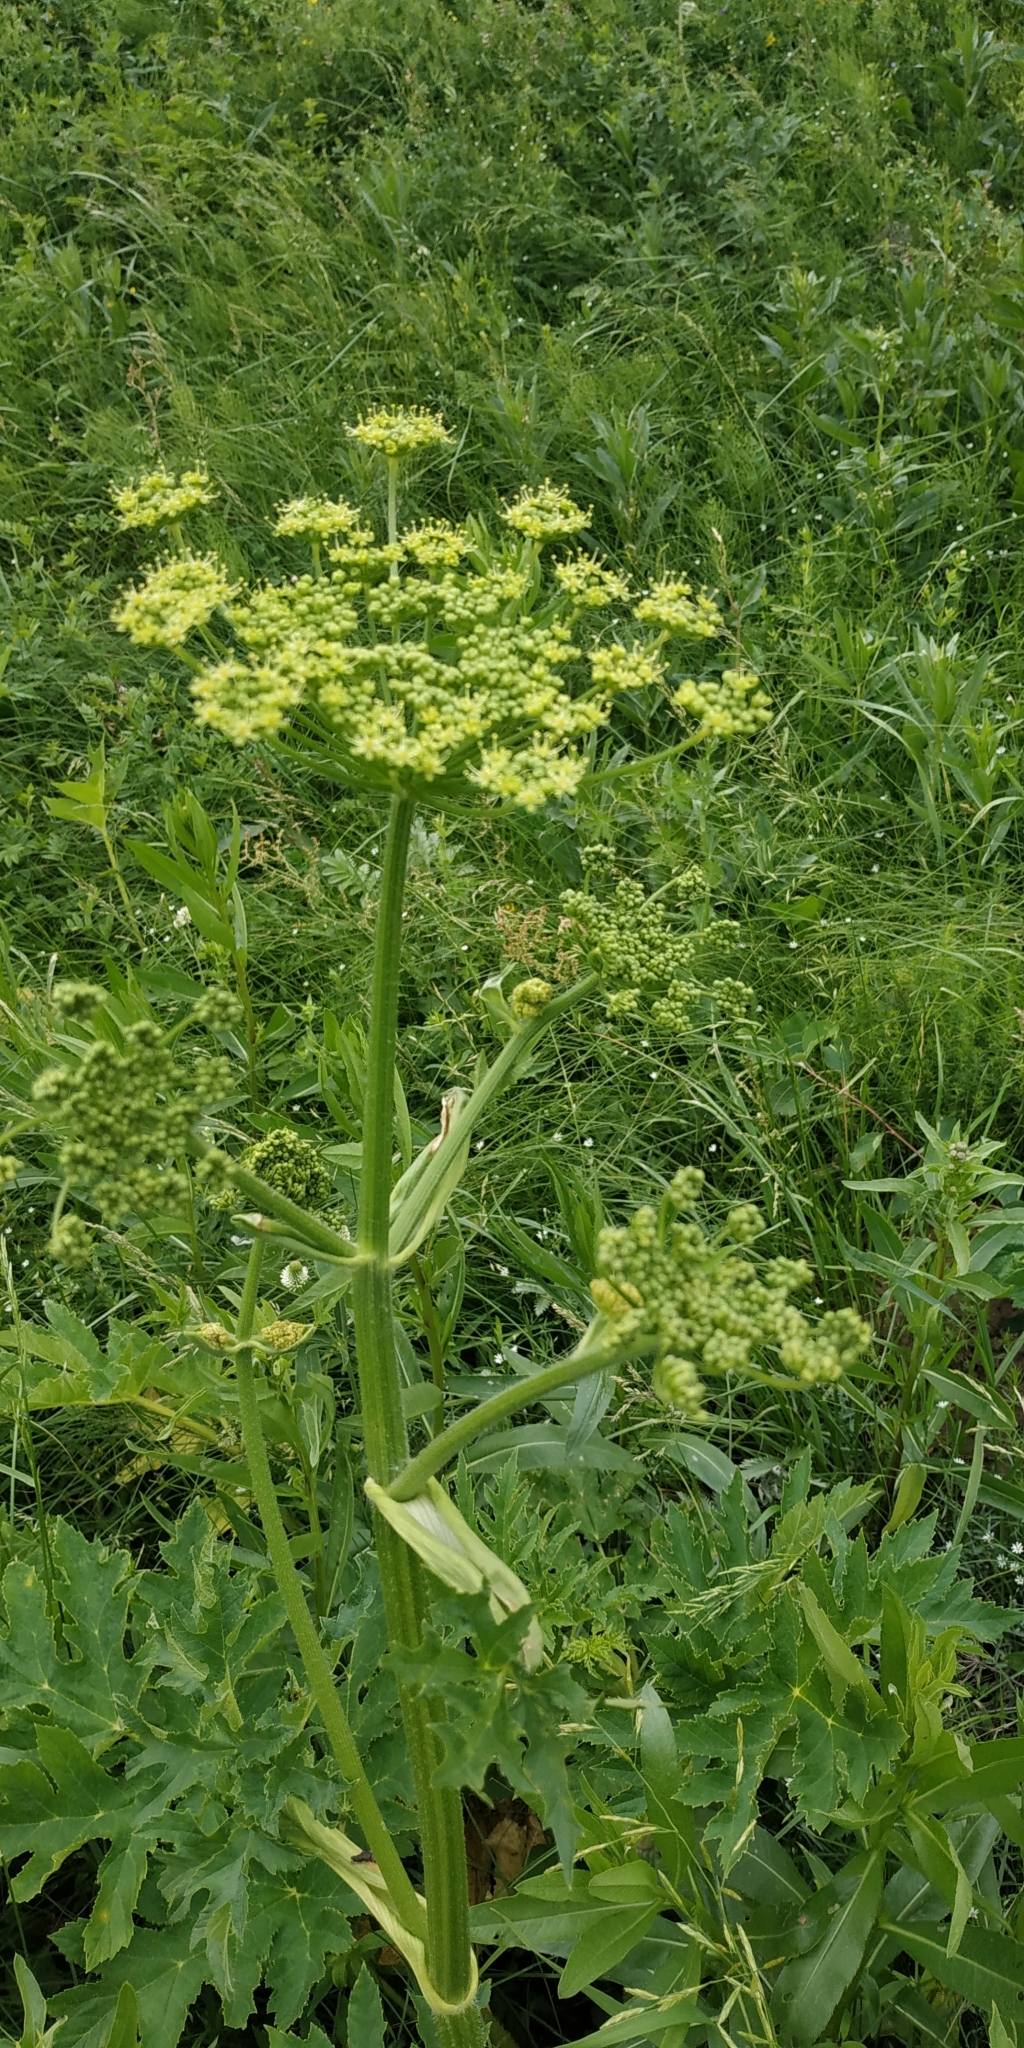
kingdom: Plantae
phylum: Tracheophyta
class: Magnoliopsida
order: Apiales
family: Apiaceae
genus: Heracleum
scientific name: Heracleum sphondylium
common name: Hogweed
